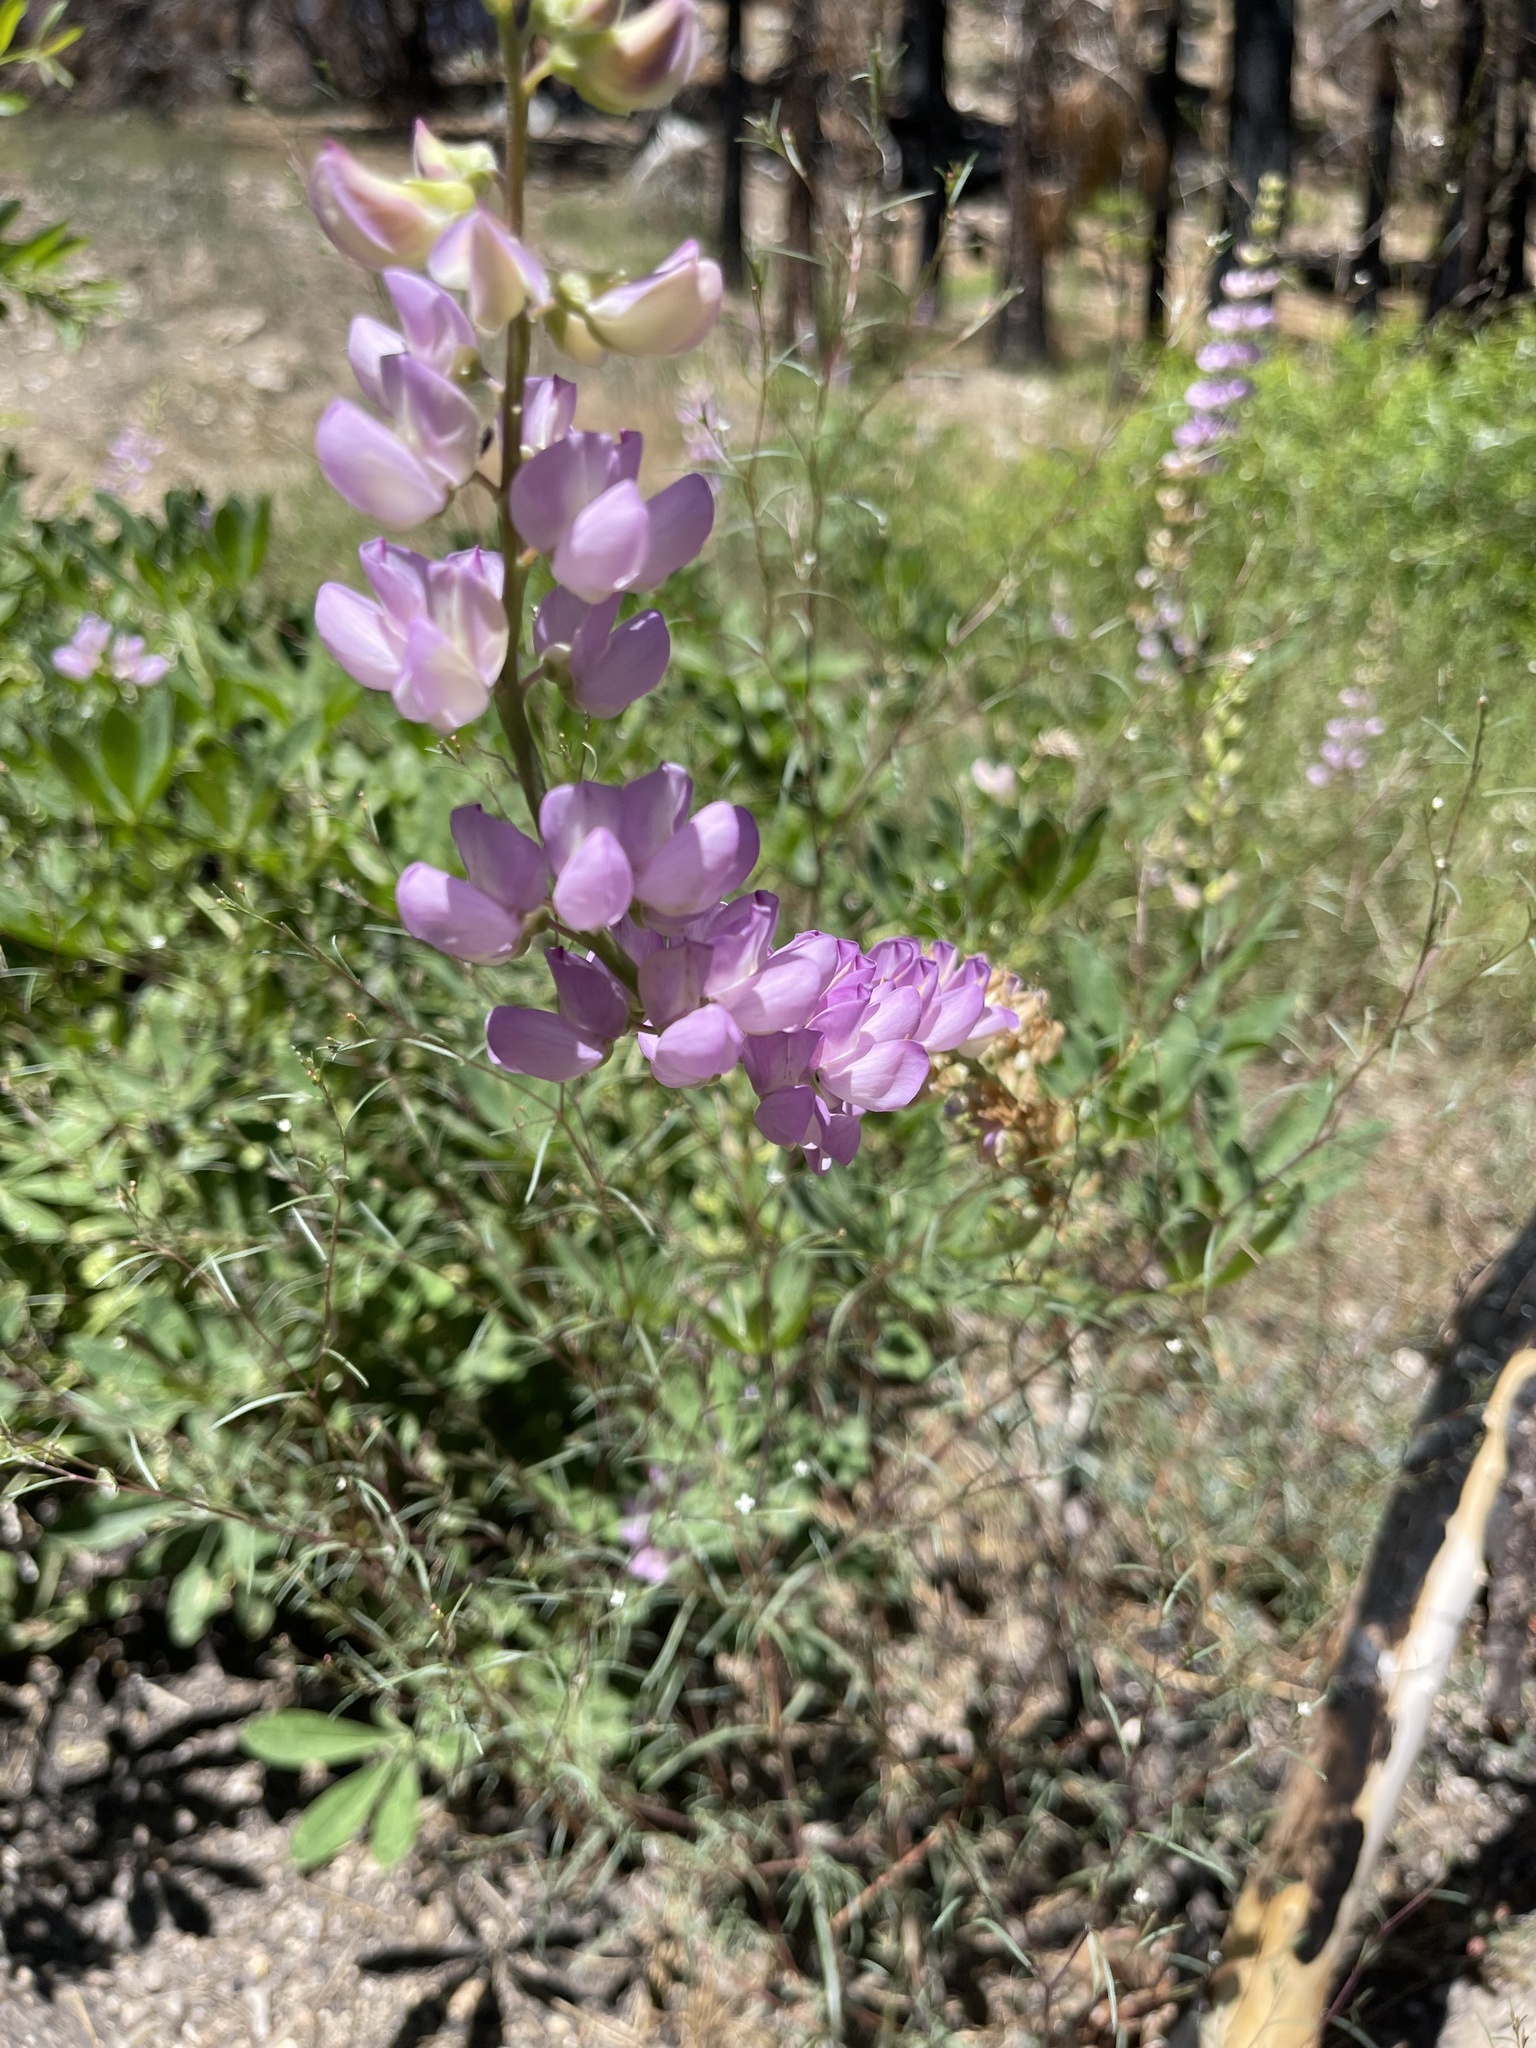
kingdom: Plantae
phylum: Tracheophyta
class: Magnoliopsida
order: Fabales
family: Fabaceae
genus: Lupinus
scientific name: Lupinus latifolius
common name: Broad-leaved lupine
